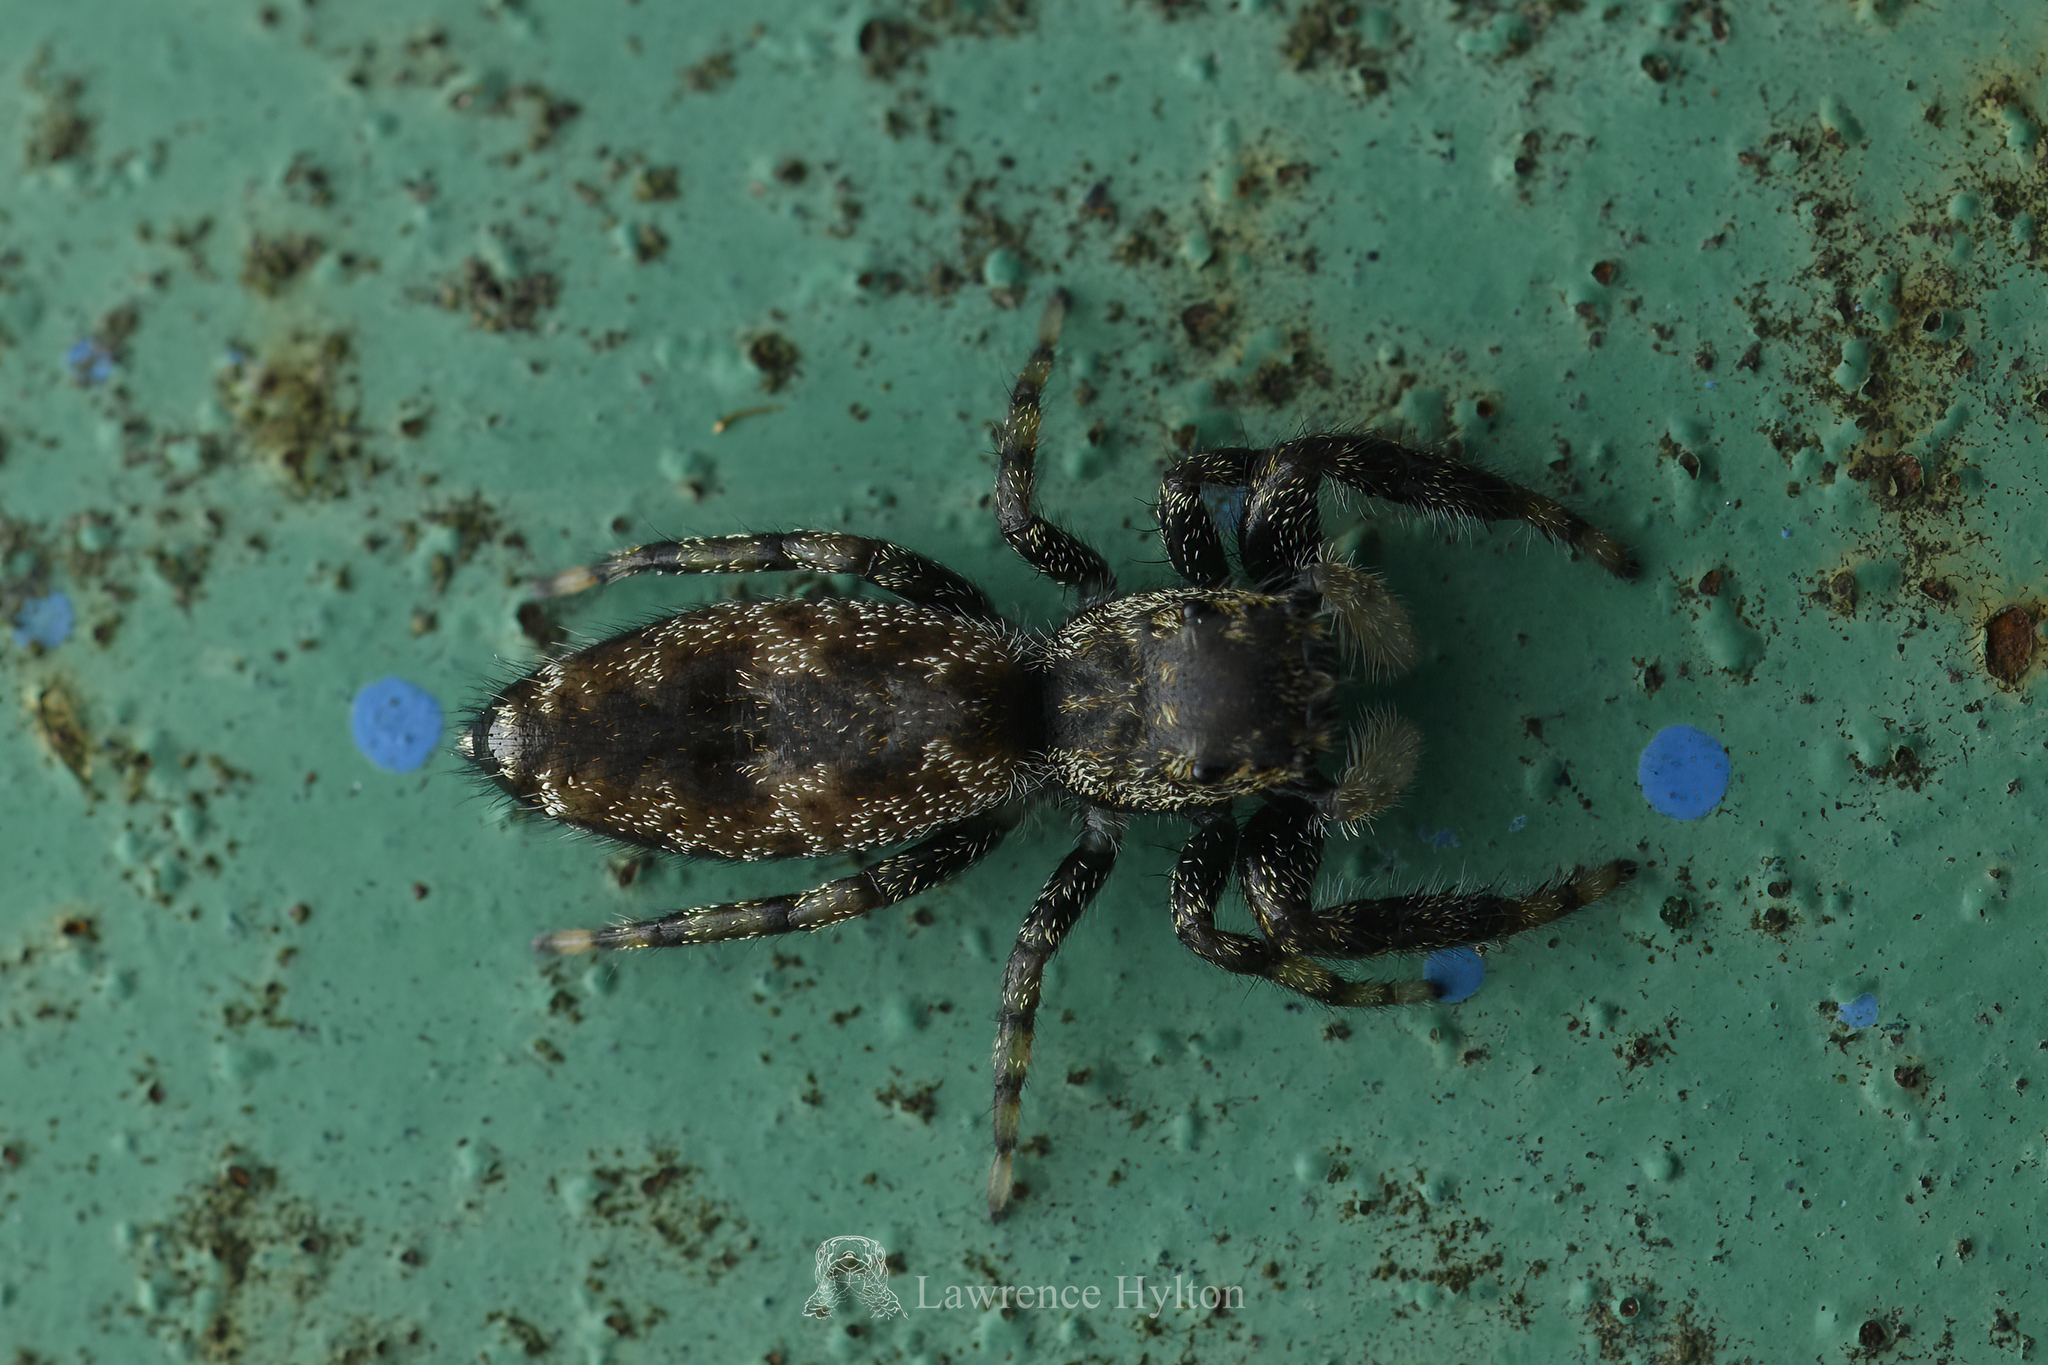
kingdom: Animalia
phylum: Arthropoda
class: Arachnida
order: Araneae
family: Salticidae
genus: Kelawakaju
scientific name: Kelawakaju frenata
